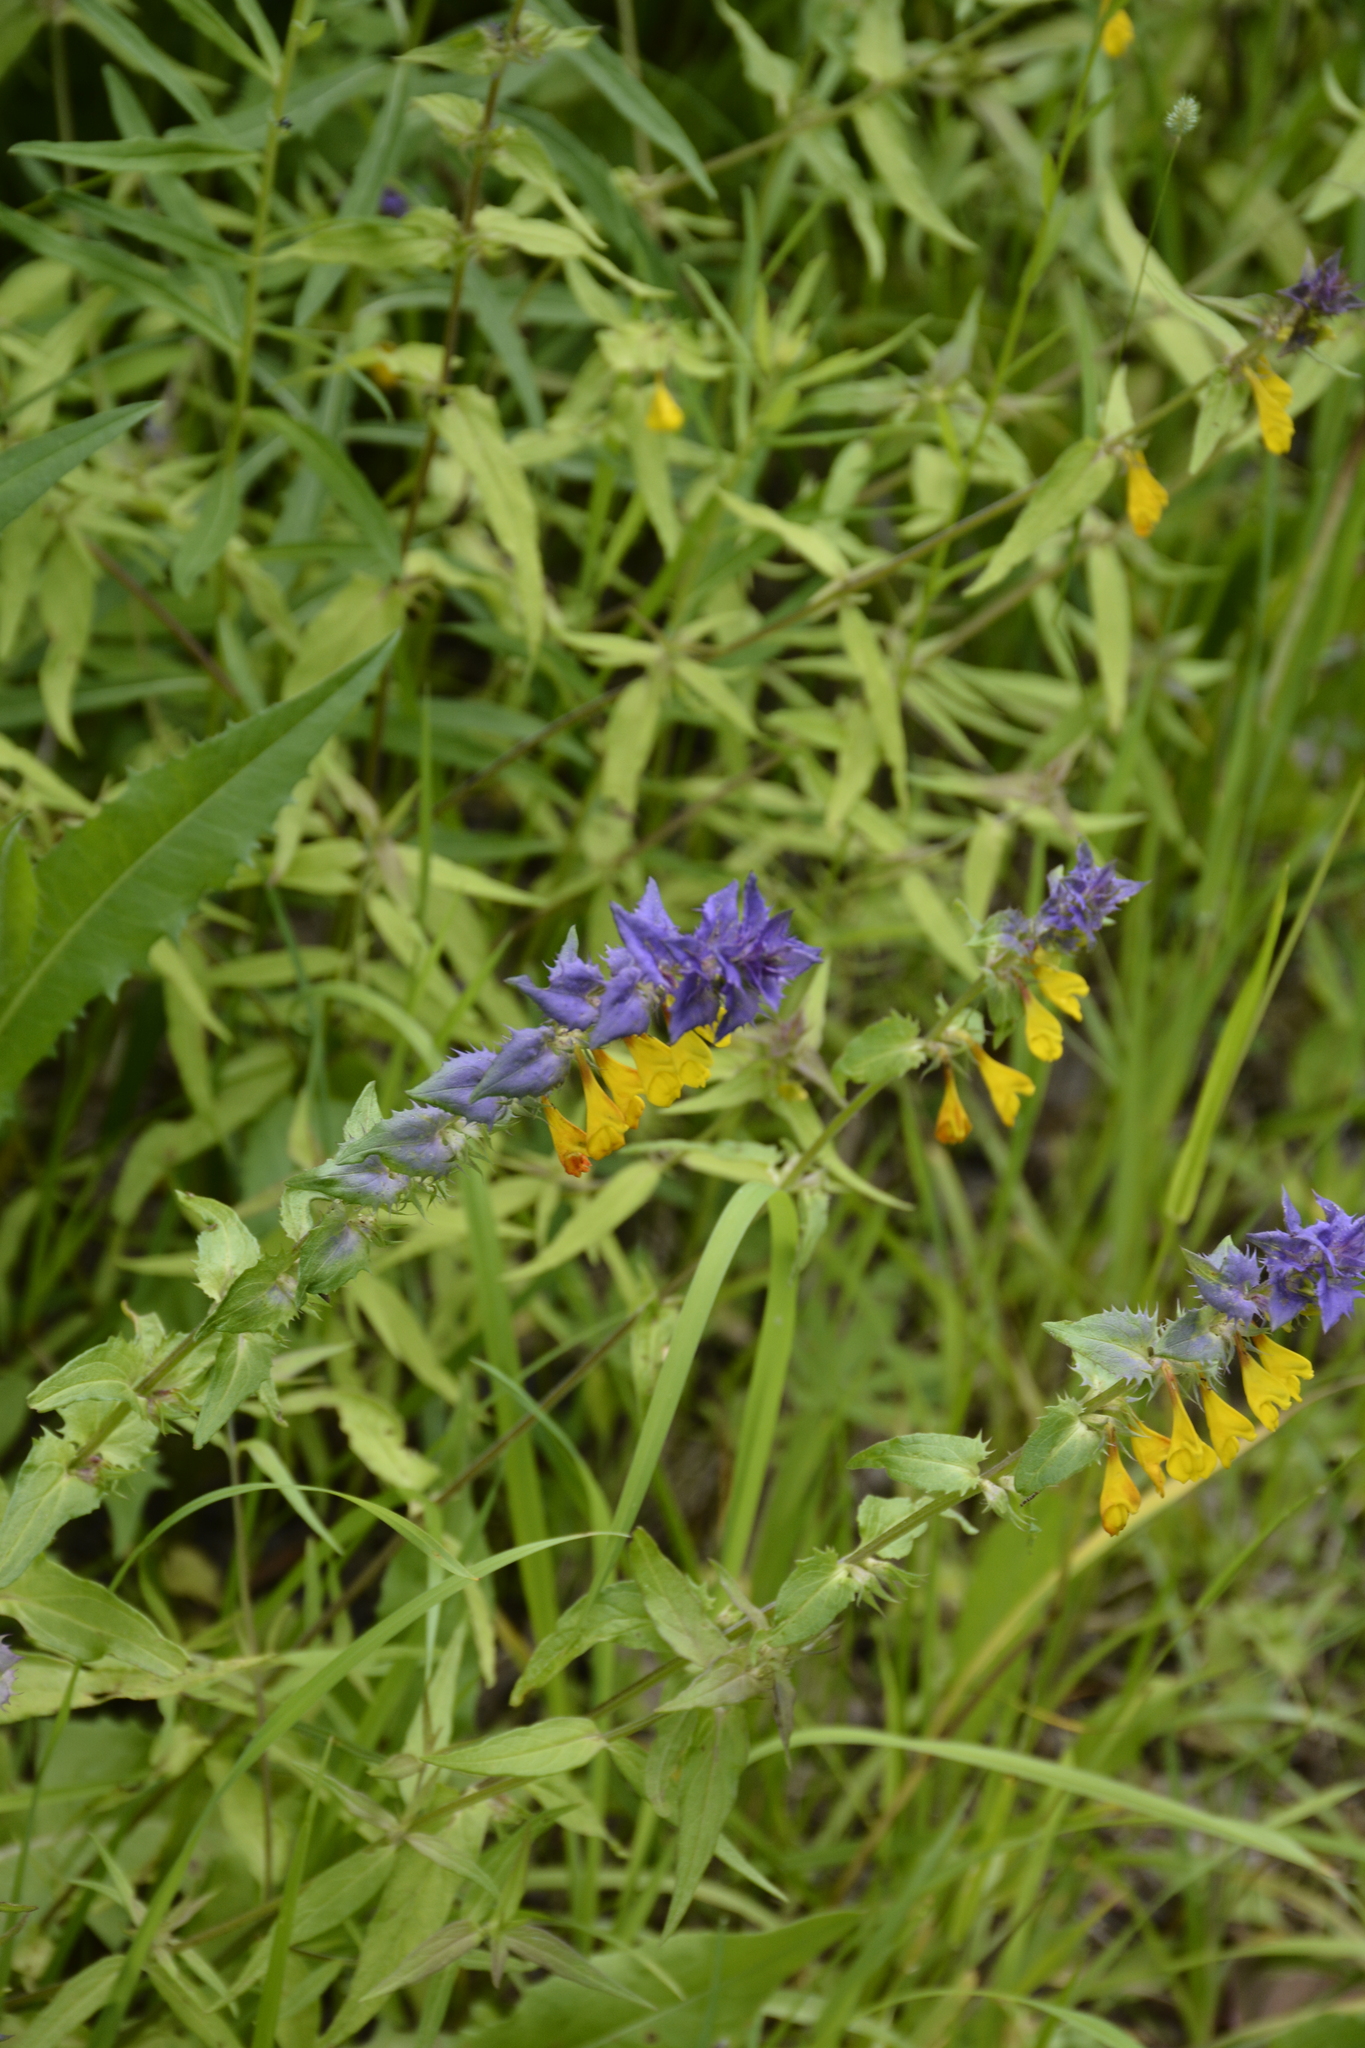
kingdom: Plantae
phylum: Tracheophyta
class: Magnoliopsida
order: Lamiales
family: Orobanchaceae
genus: Melampyrum
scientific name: Melampyrum nemorosum
